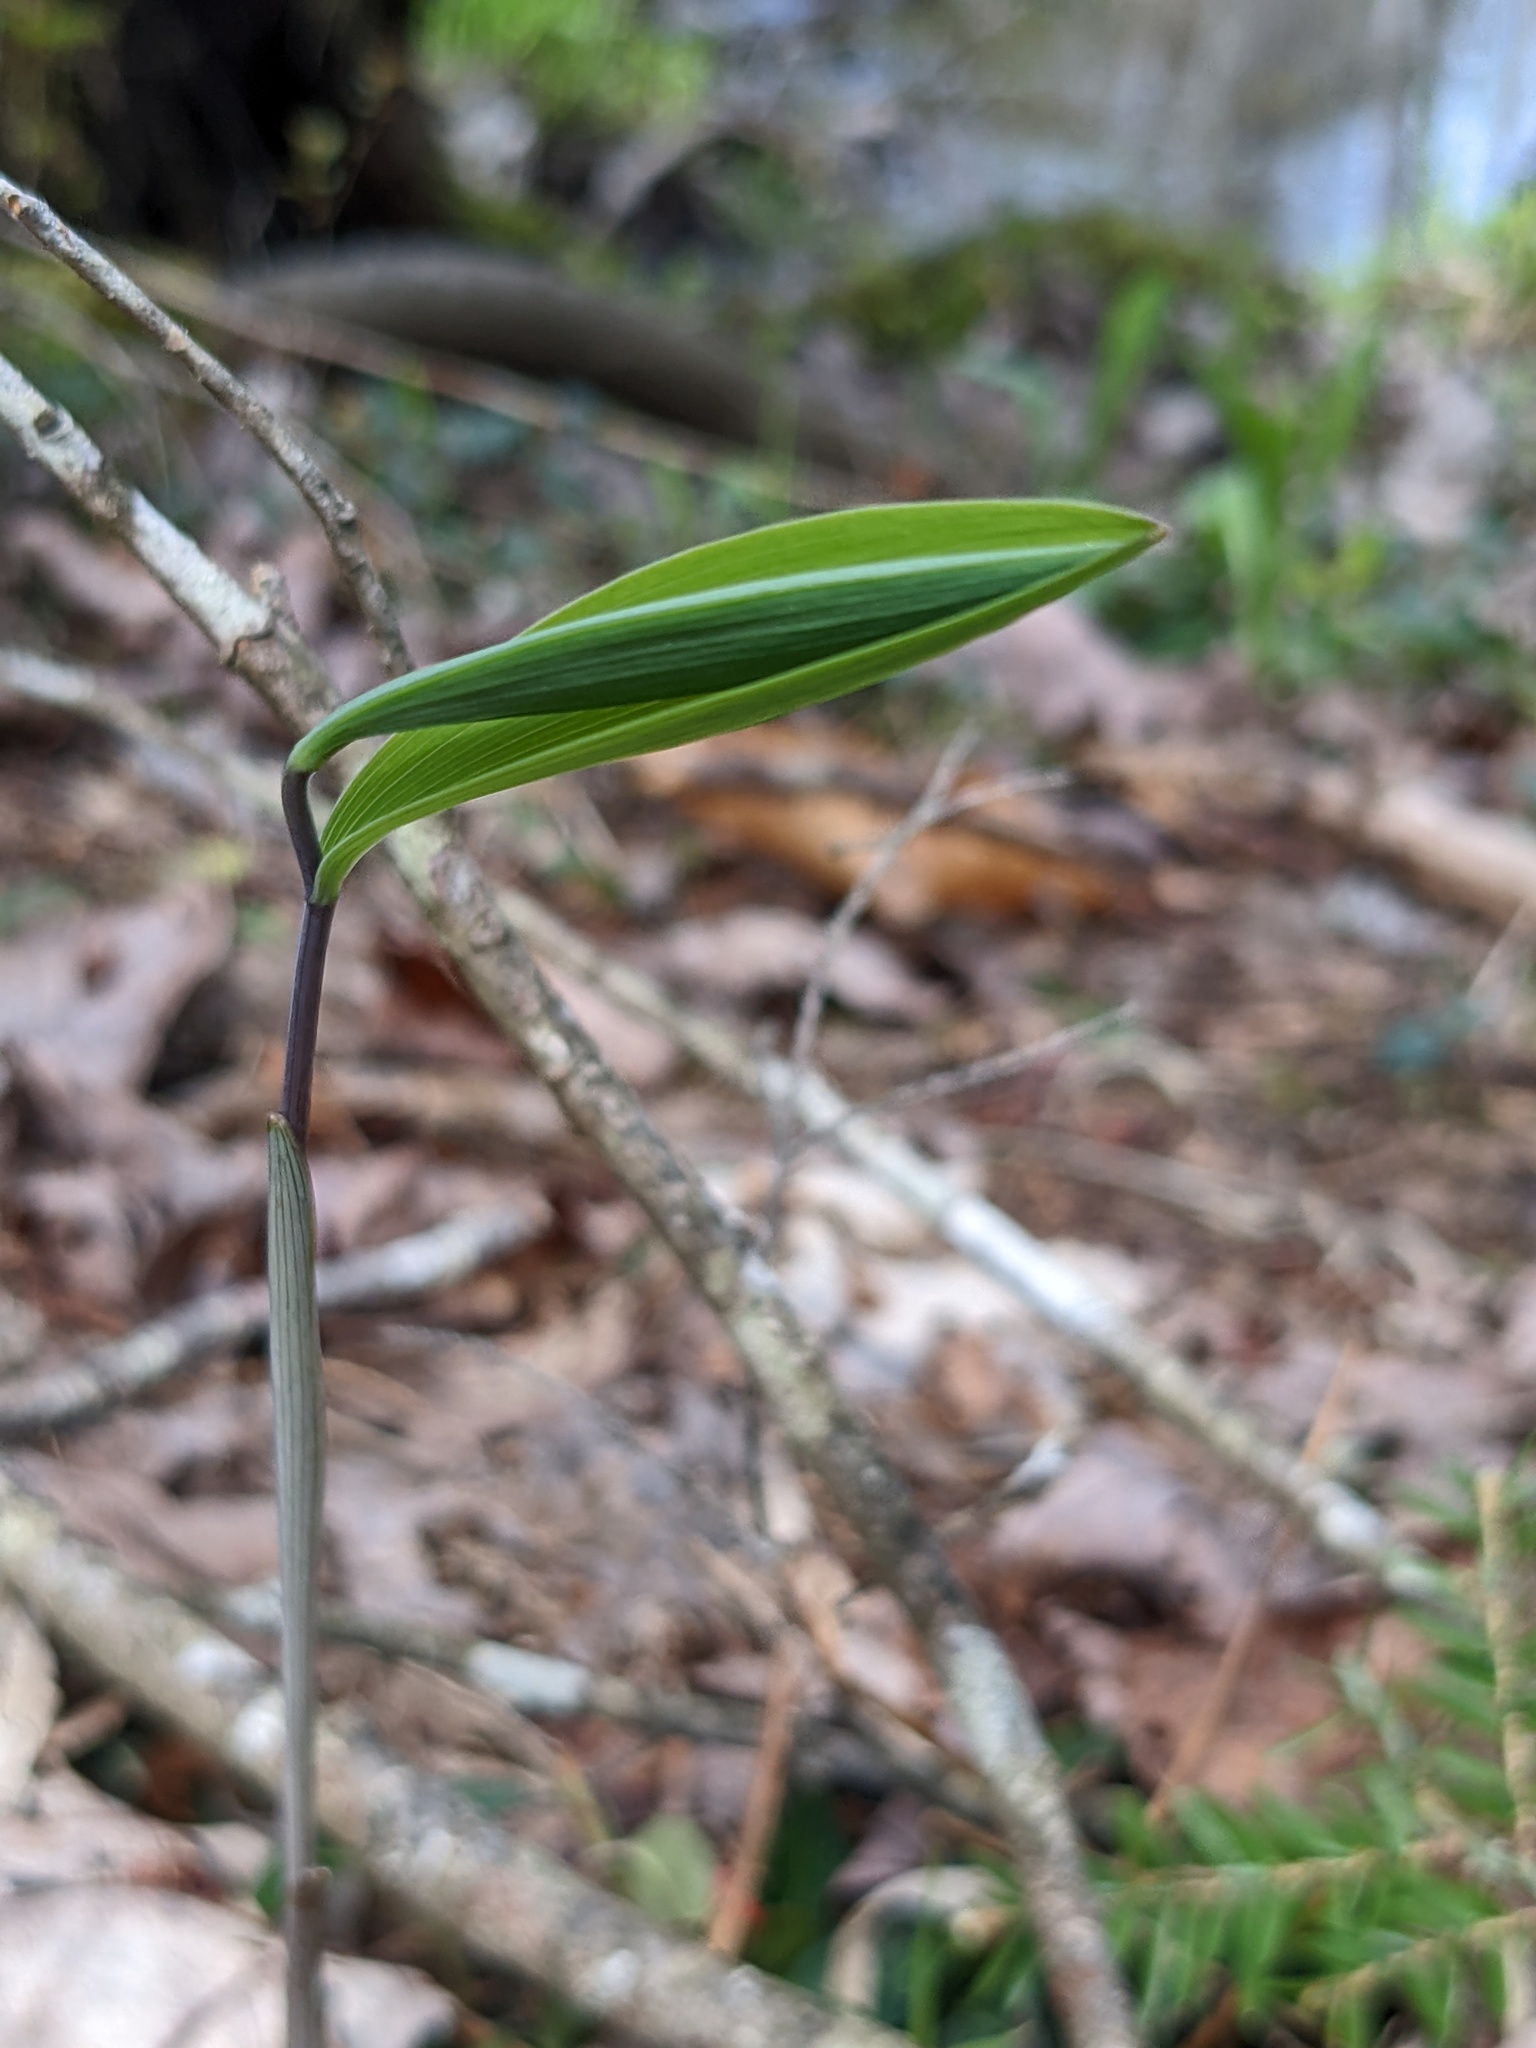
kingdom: Plantae
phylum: Tracheophyta
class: Liliopsida
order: Liliales
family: Colchicaceae
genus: Uvularia
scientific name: Uvularia sessilifolia
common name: Straw-lily
